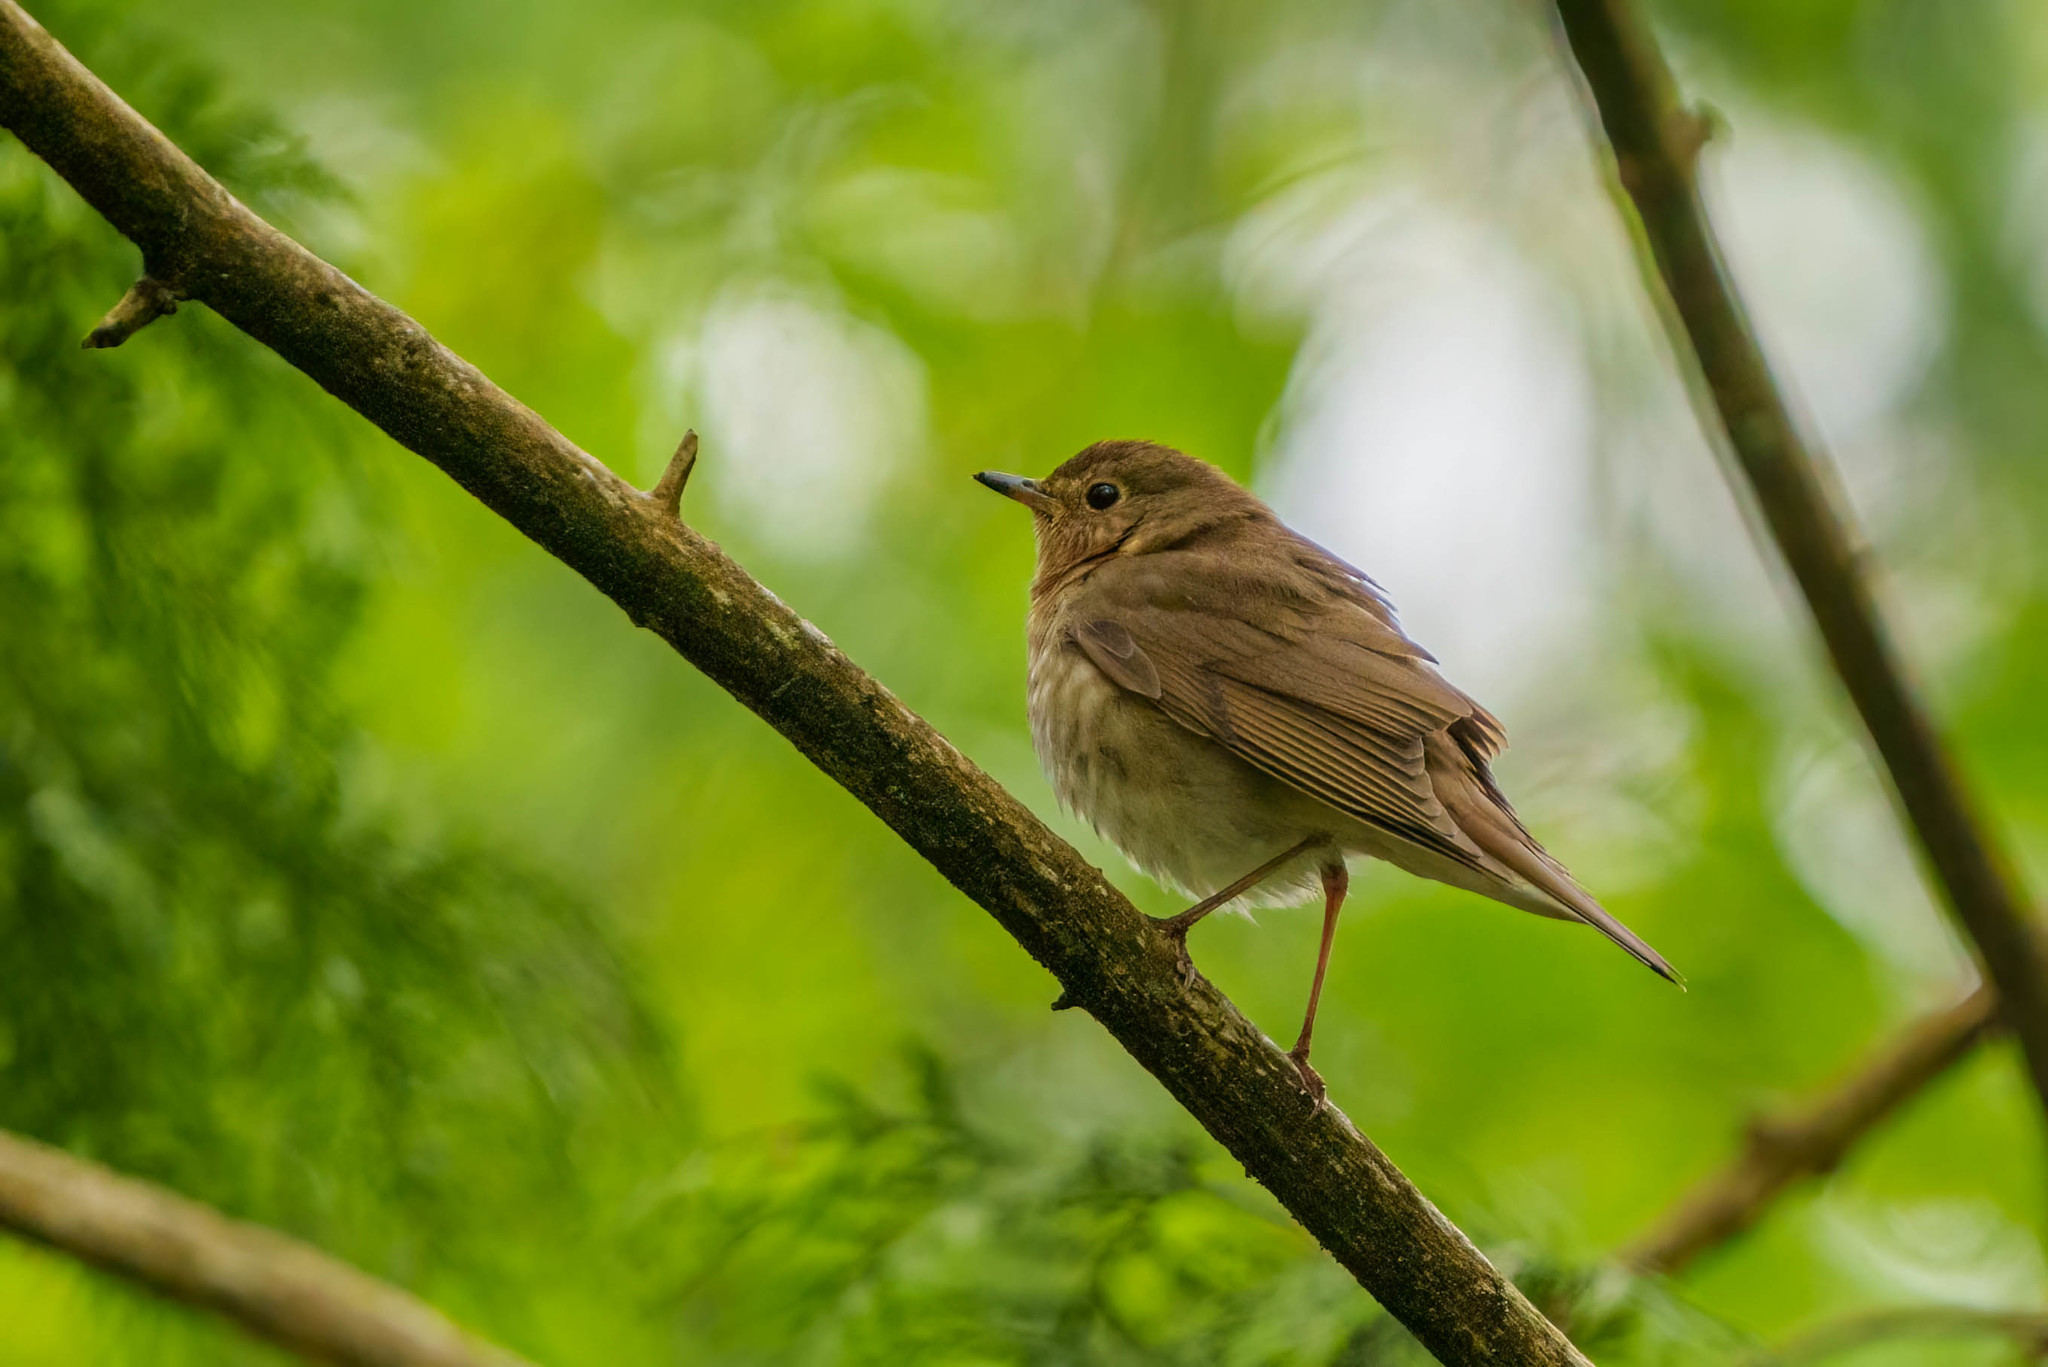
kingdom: Animalia
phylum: Chordata
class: Aves
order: Passeriformes
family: Turdidae
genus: Catharus
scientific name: Catharus ustulatus
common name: Swainson's thrush
